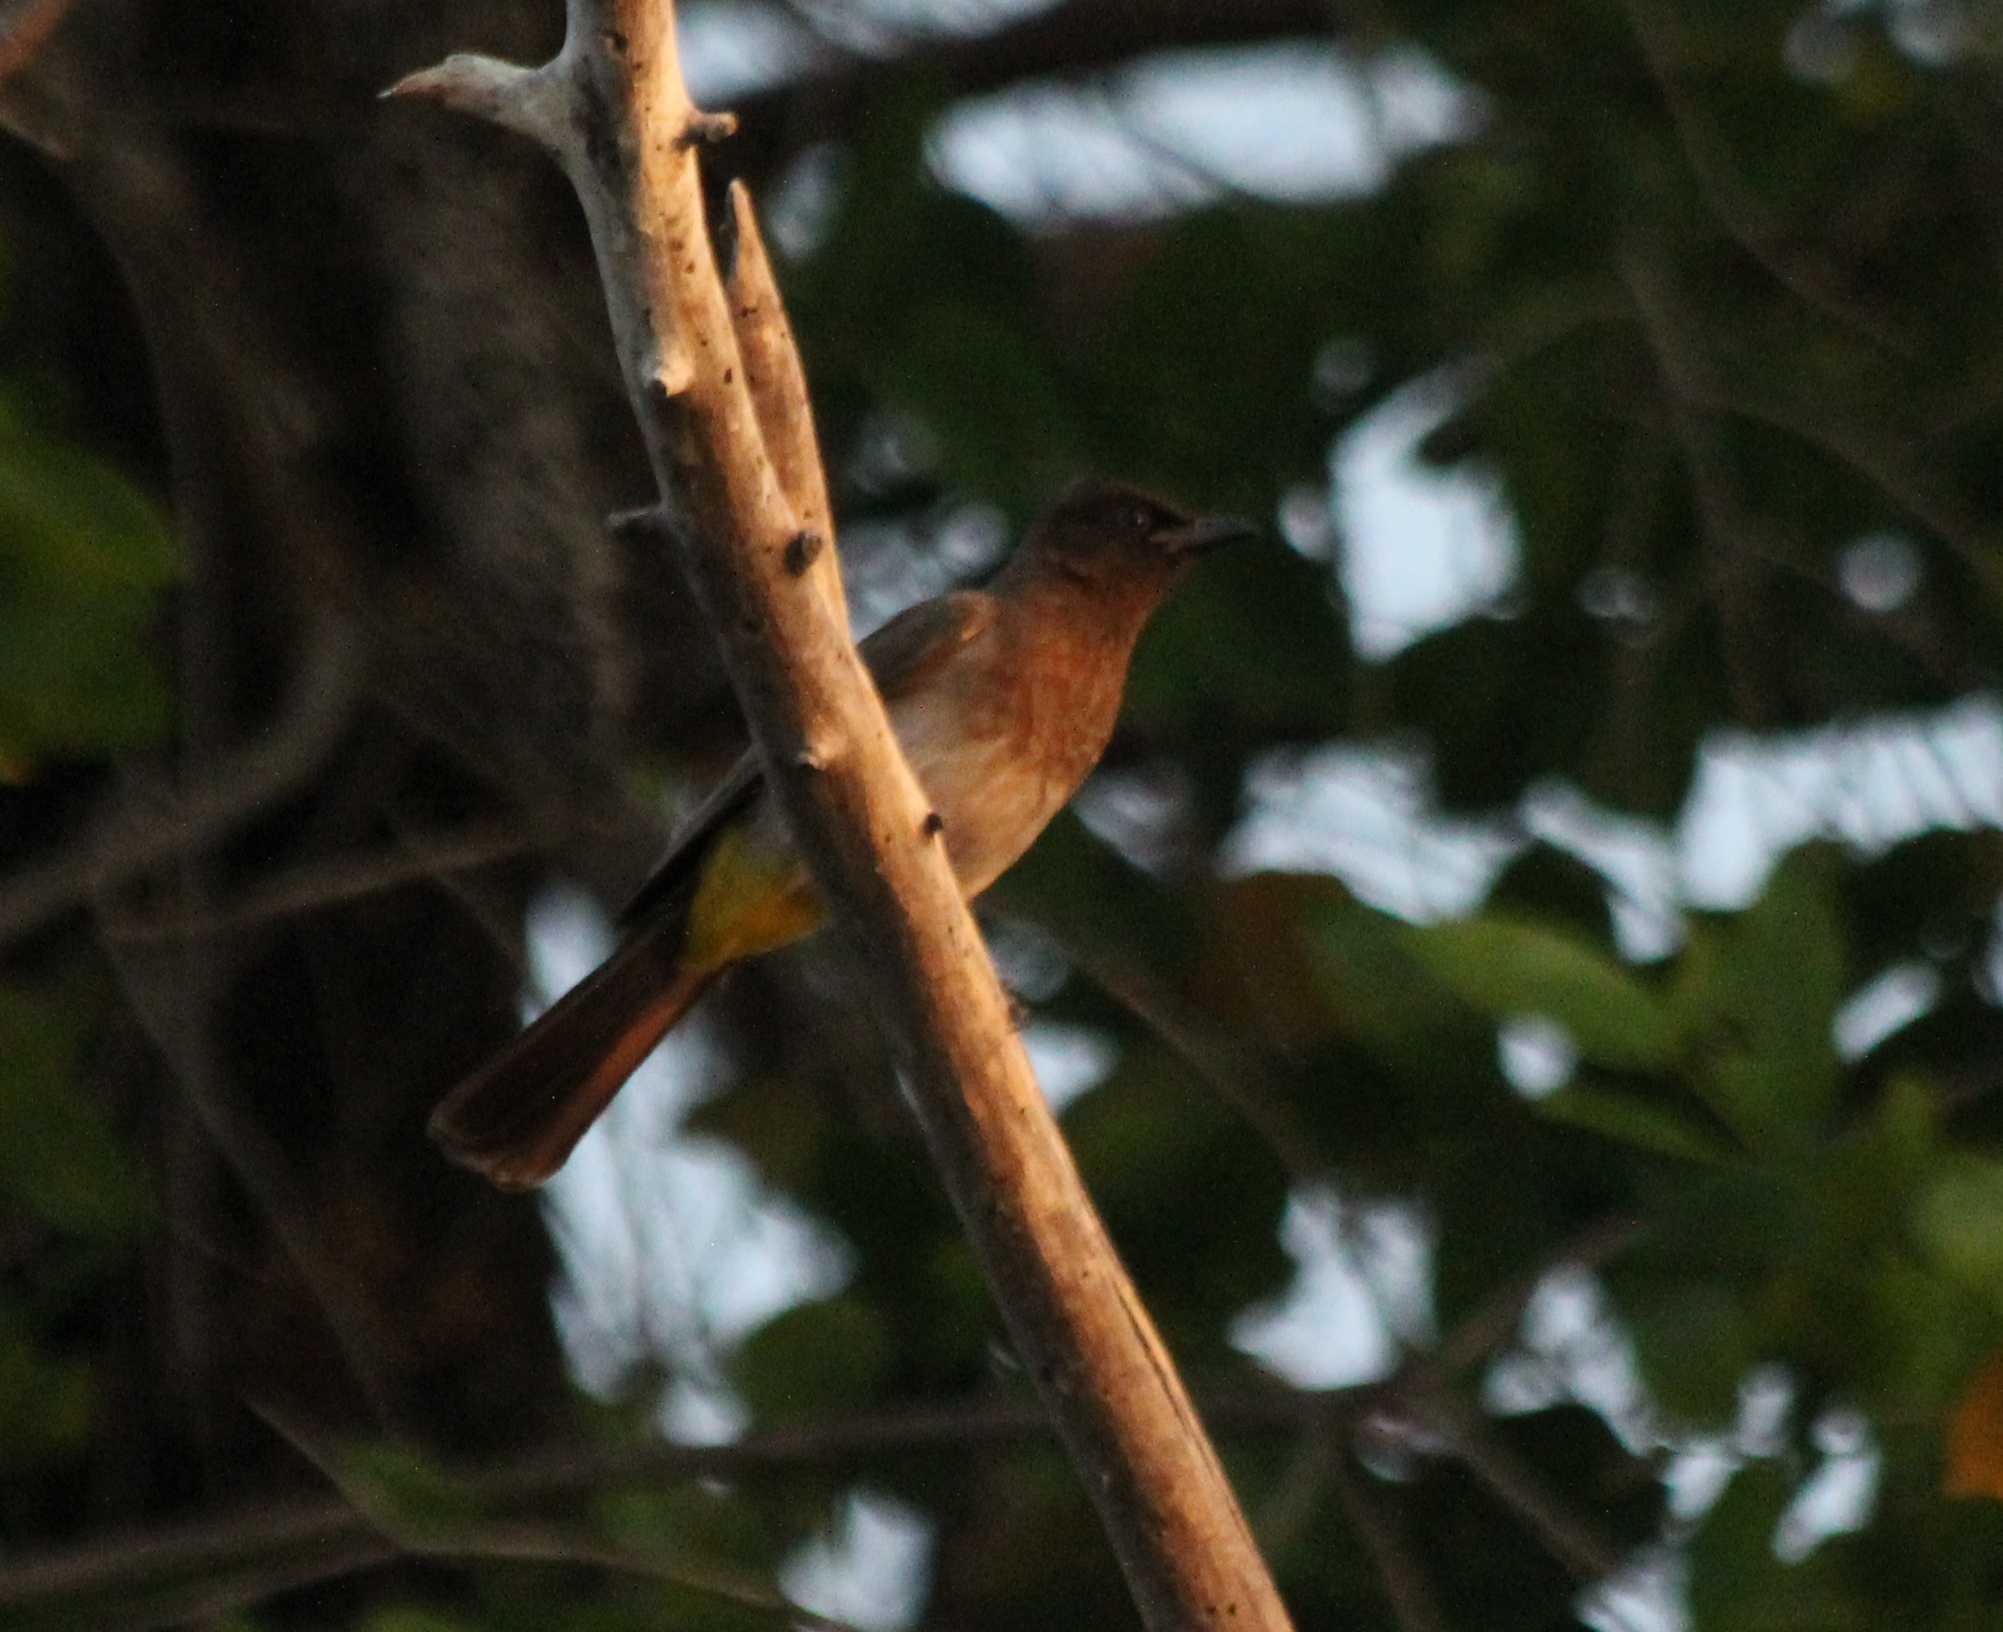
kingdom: Animalia
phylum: Chordata
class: Aves
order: Passeriformes
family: Pycnonotidae
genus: Pycnonotus
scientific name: Pycnonotus barbatus
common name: Common bulbul
